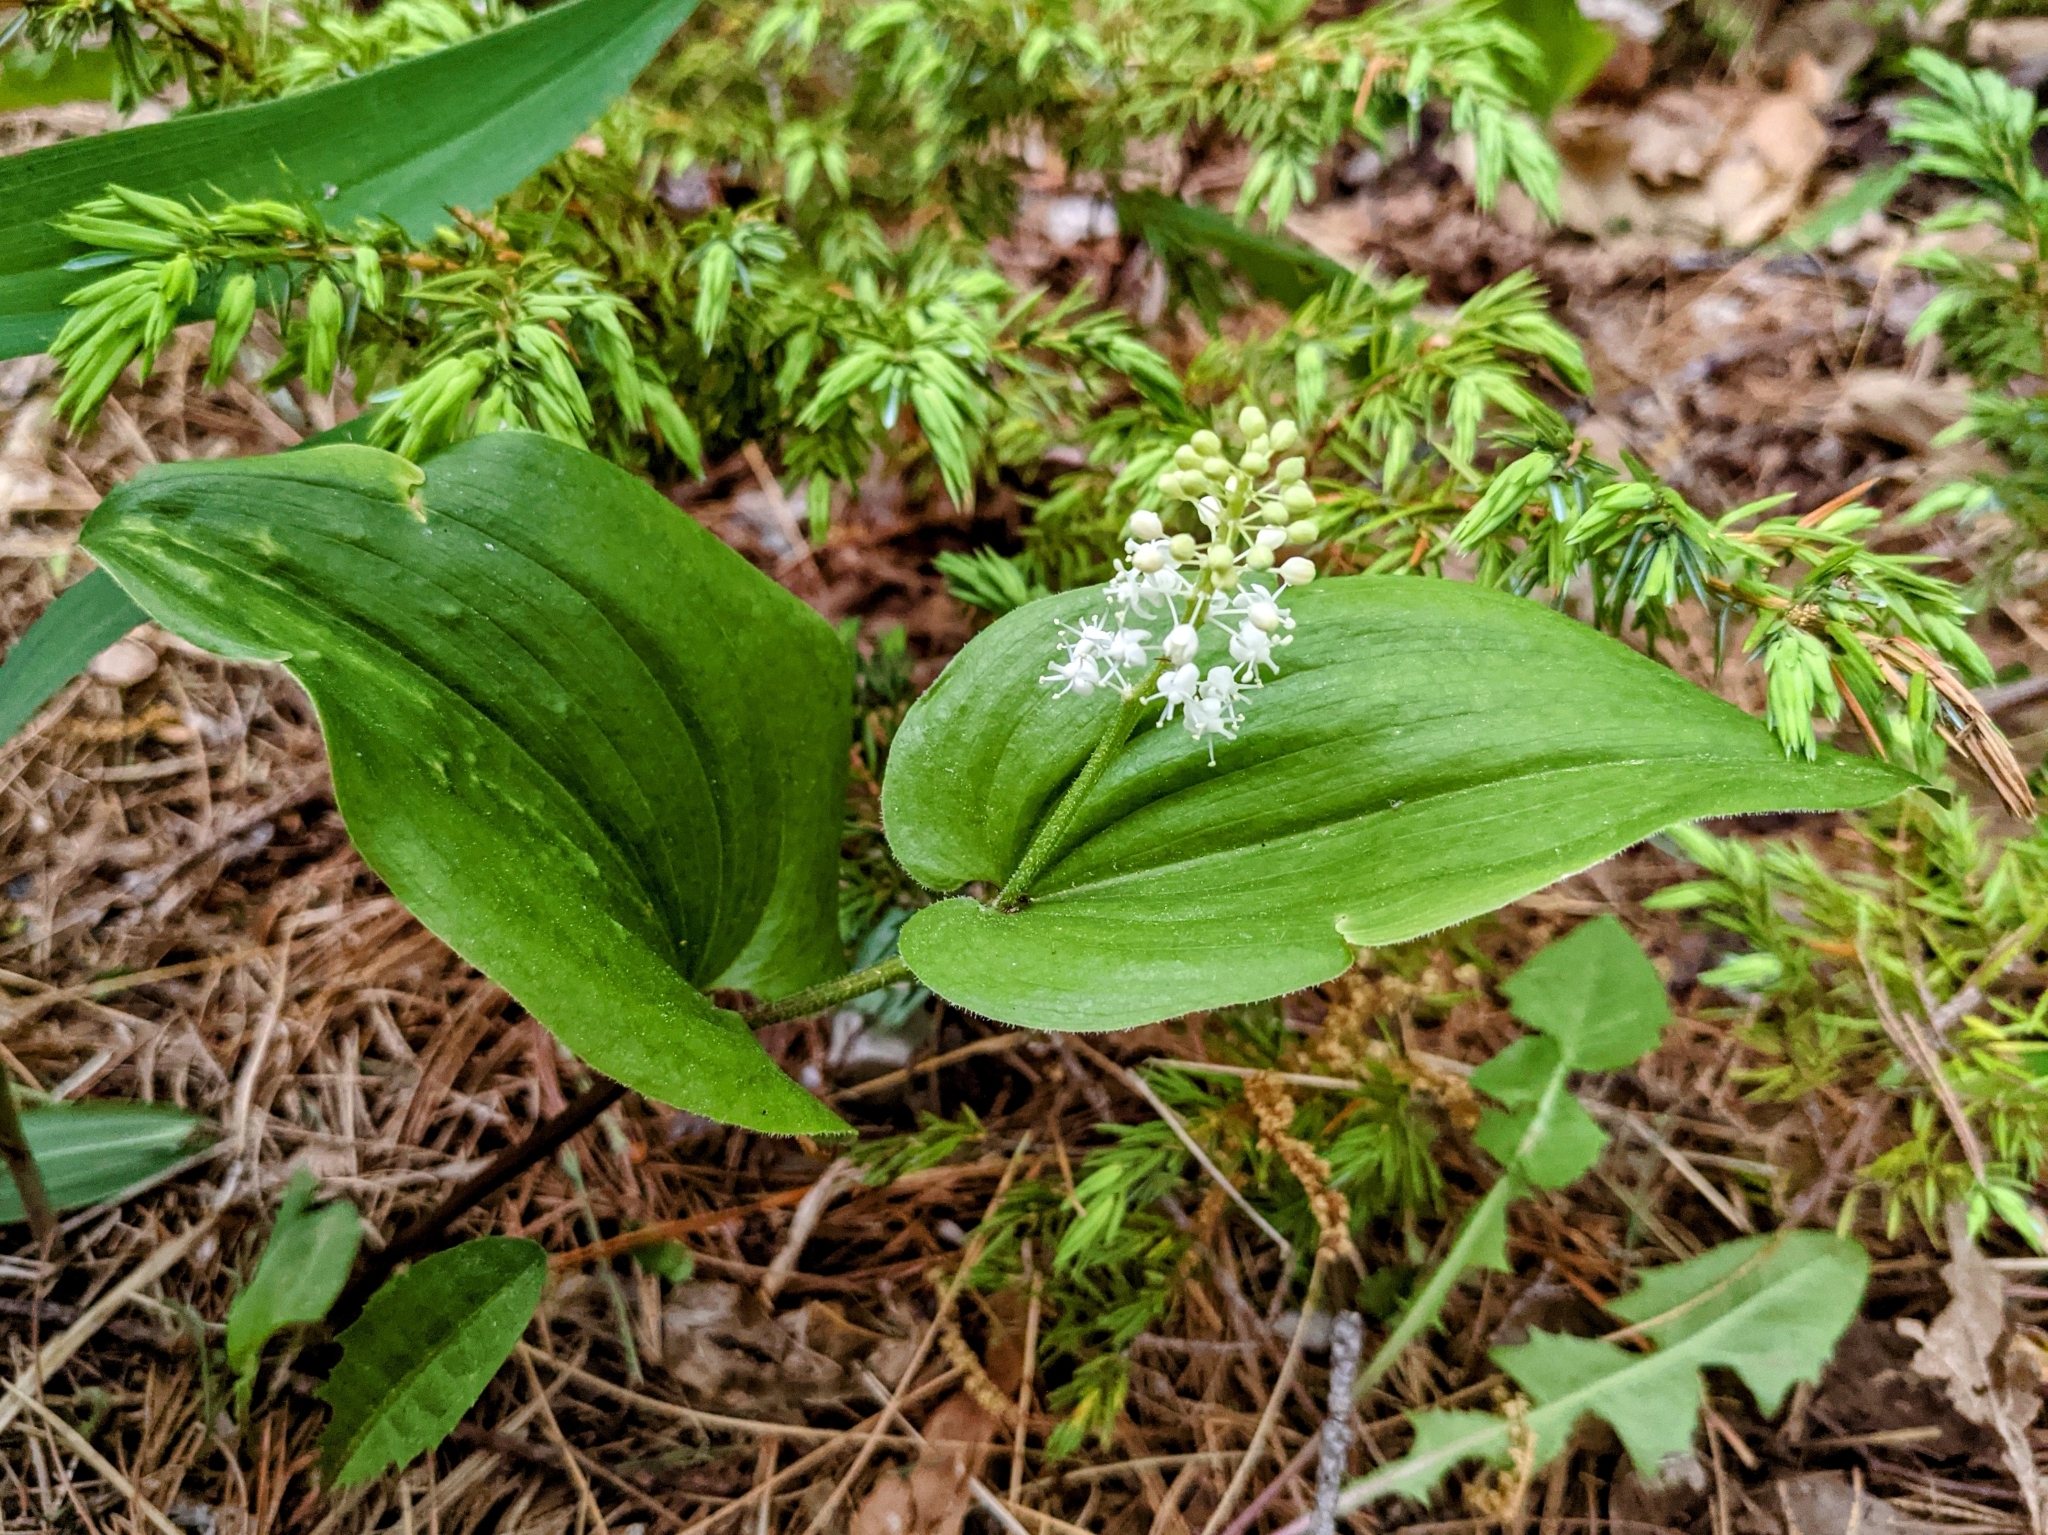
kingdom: Plantae
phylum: Tracheophyta
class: Liliopsida
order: Asparagales
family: Asparagaceae
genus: Maianthemum
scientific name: Maianthemum canadense
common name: False lily-of-the-valley
